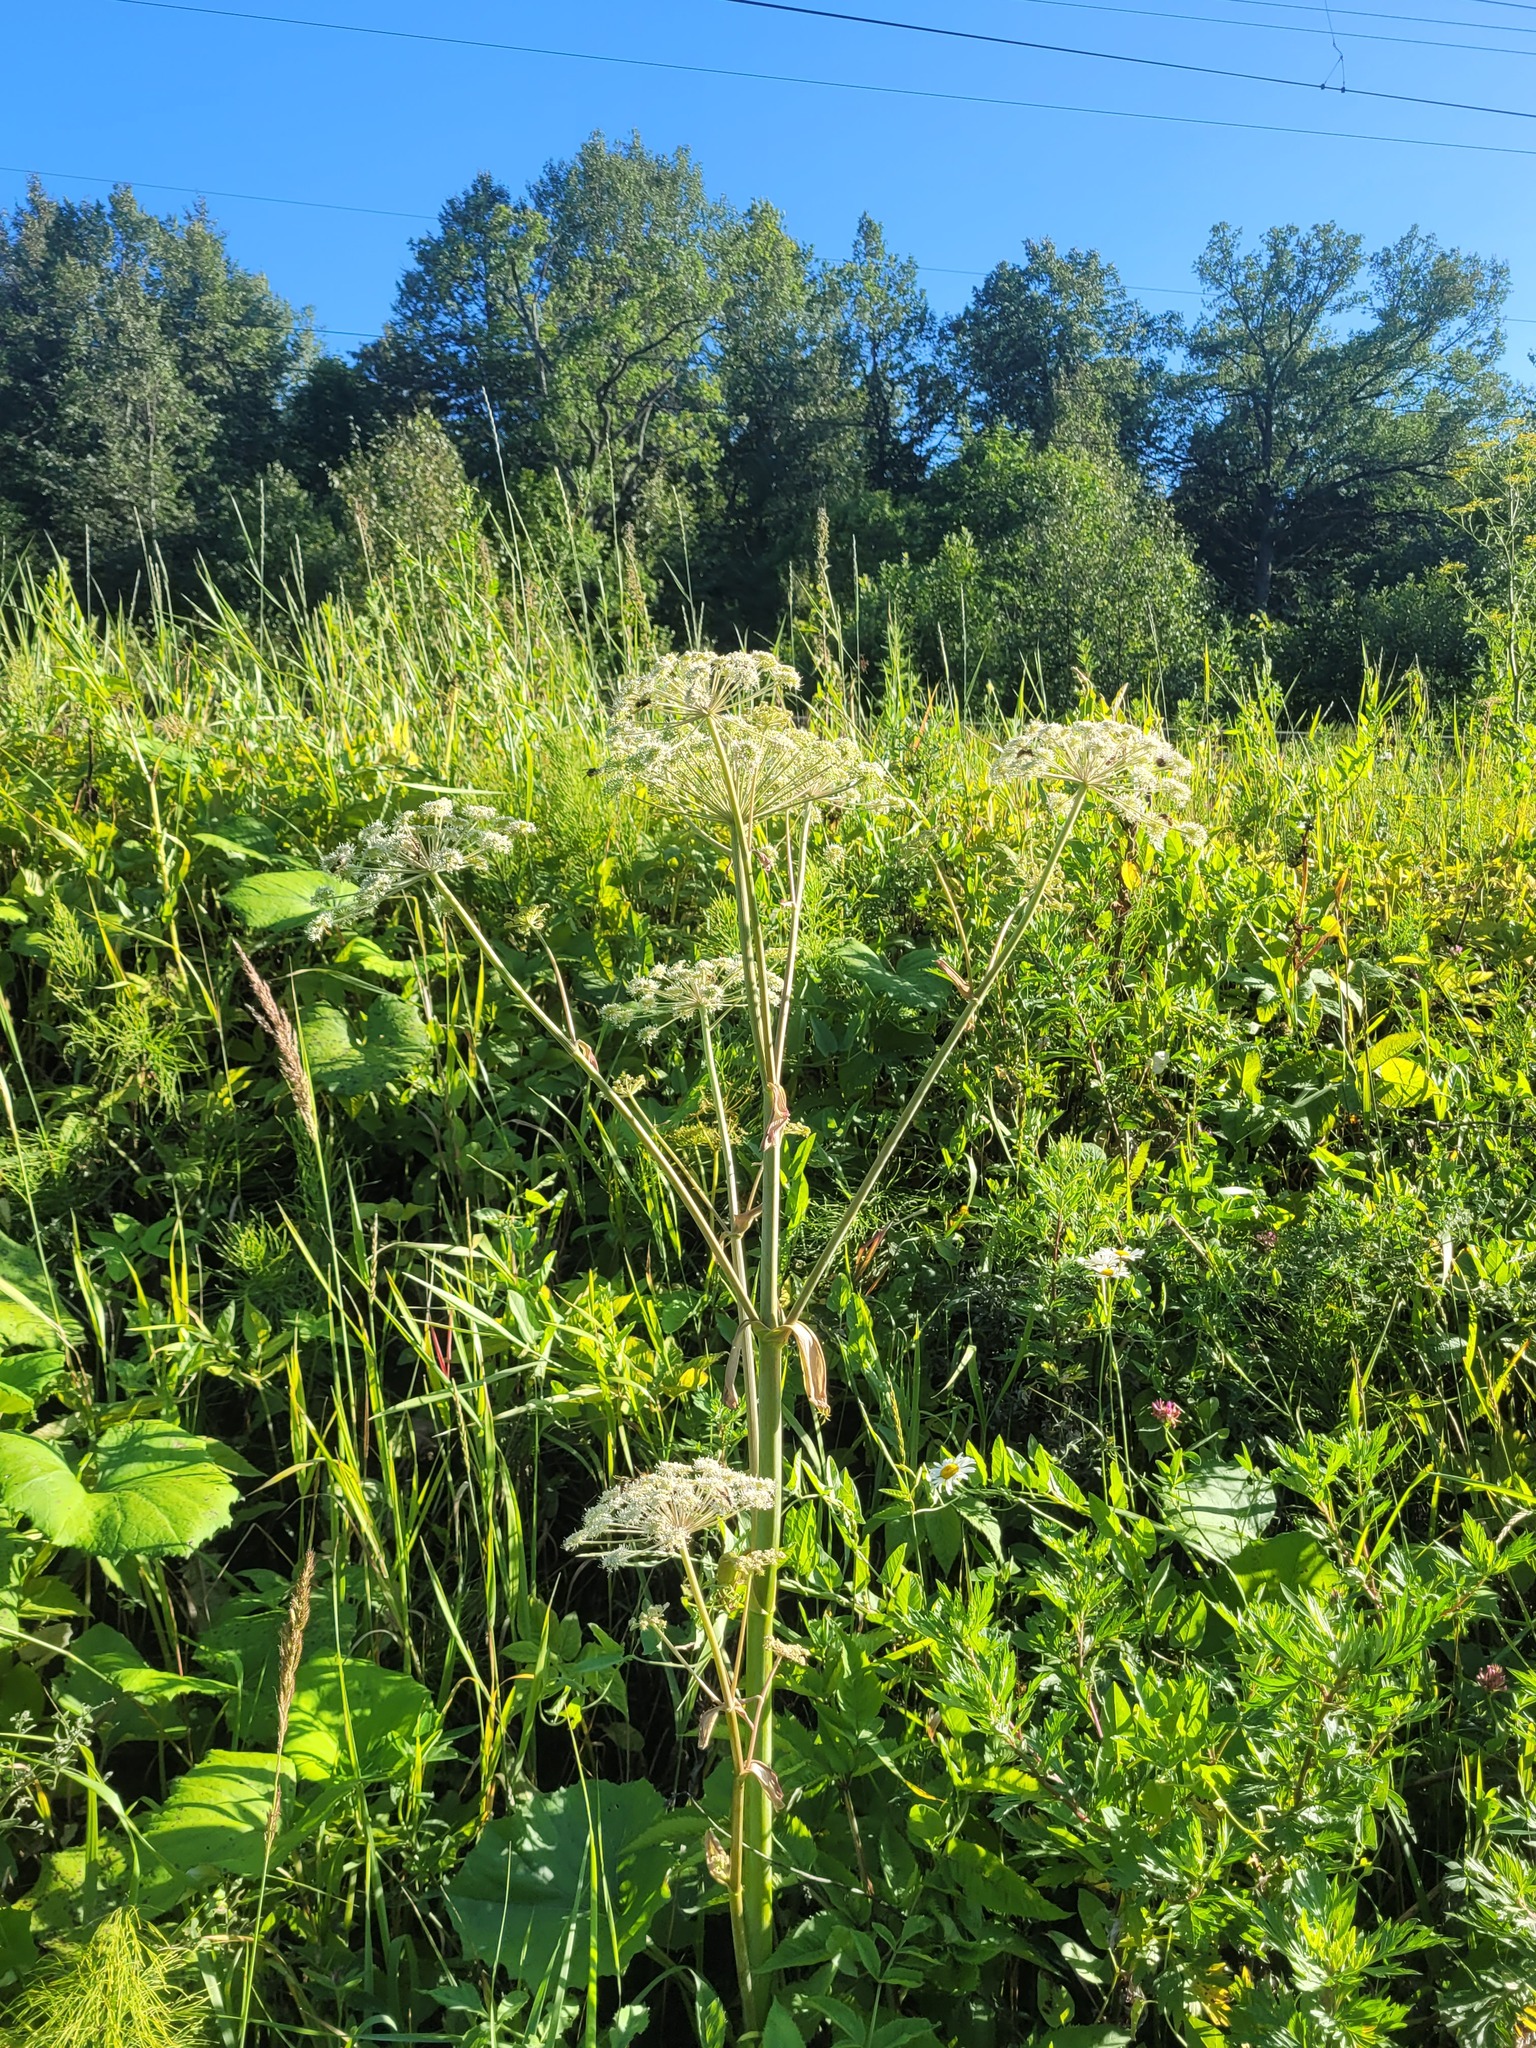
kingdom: Plantae
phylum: Tracheophyta
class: Magnoliopsida
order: Apiales
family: Apiaceae
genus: Angelica
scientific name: Angelica sylvestris
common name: Wild angelica
